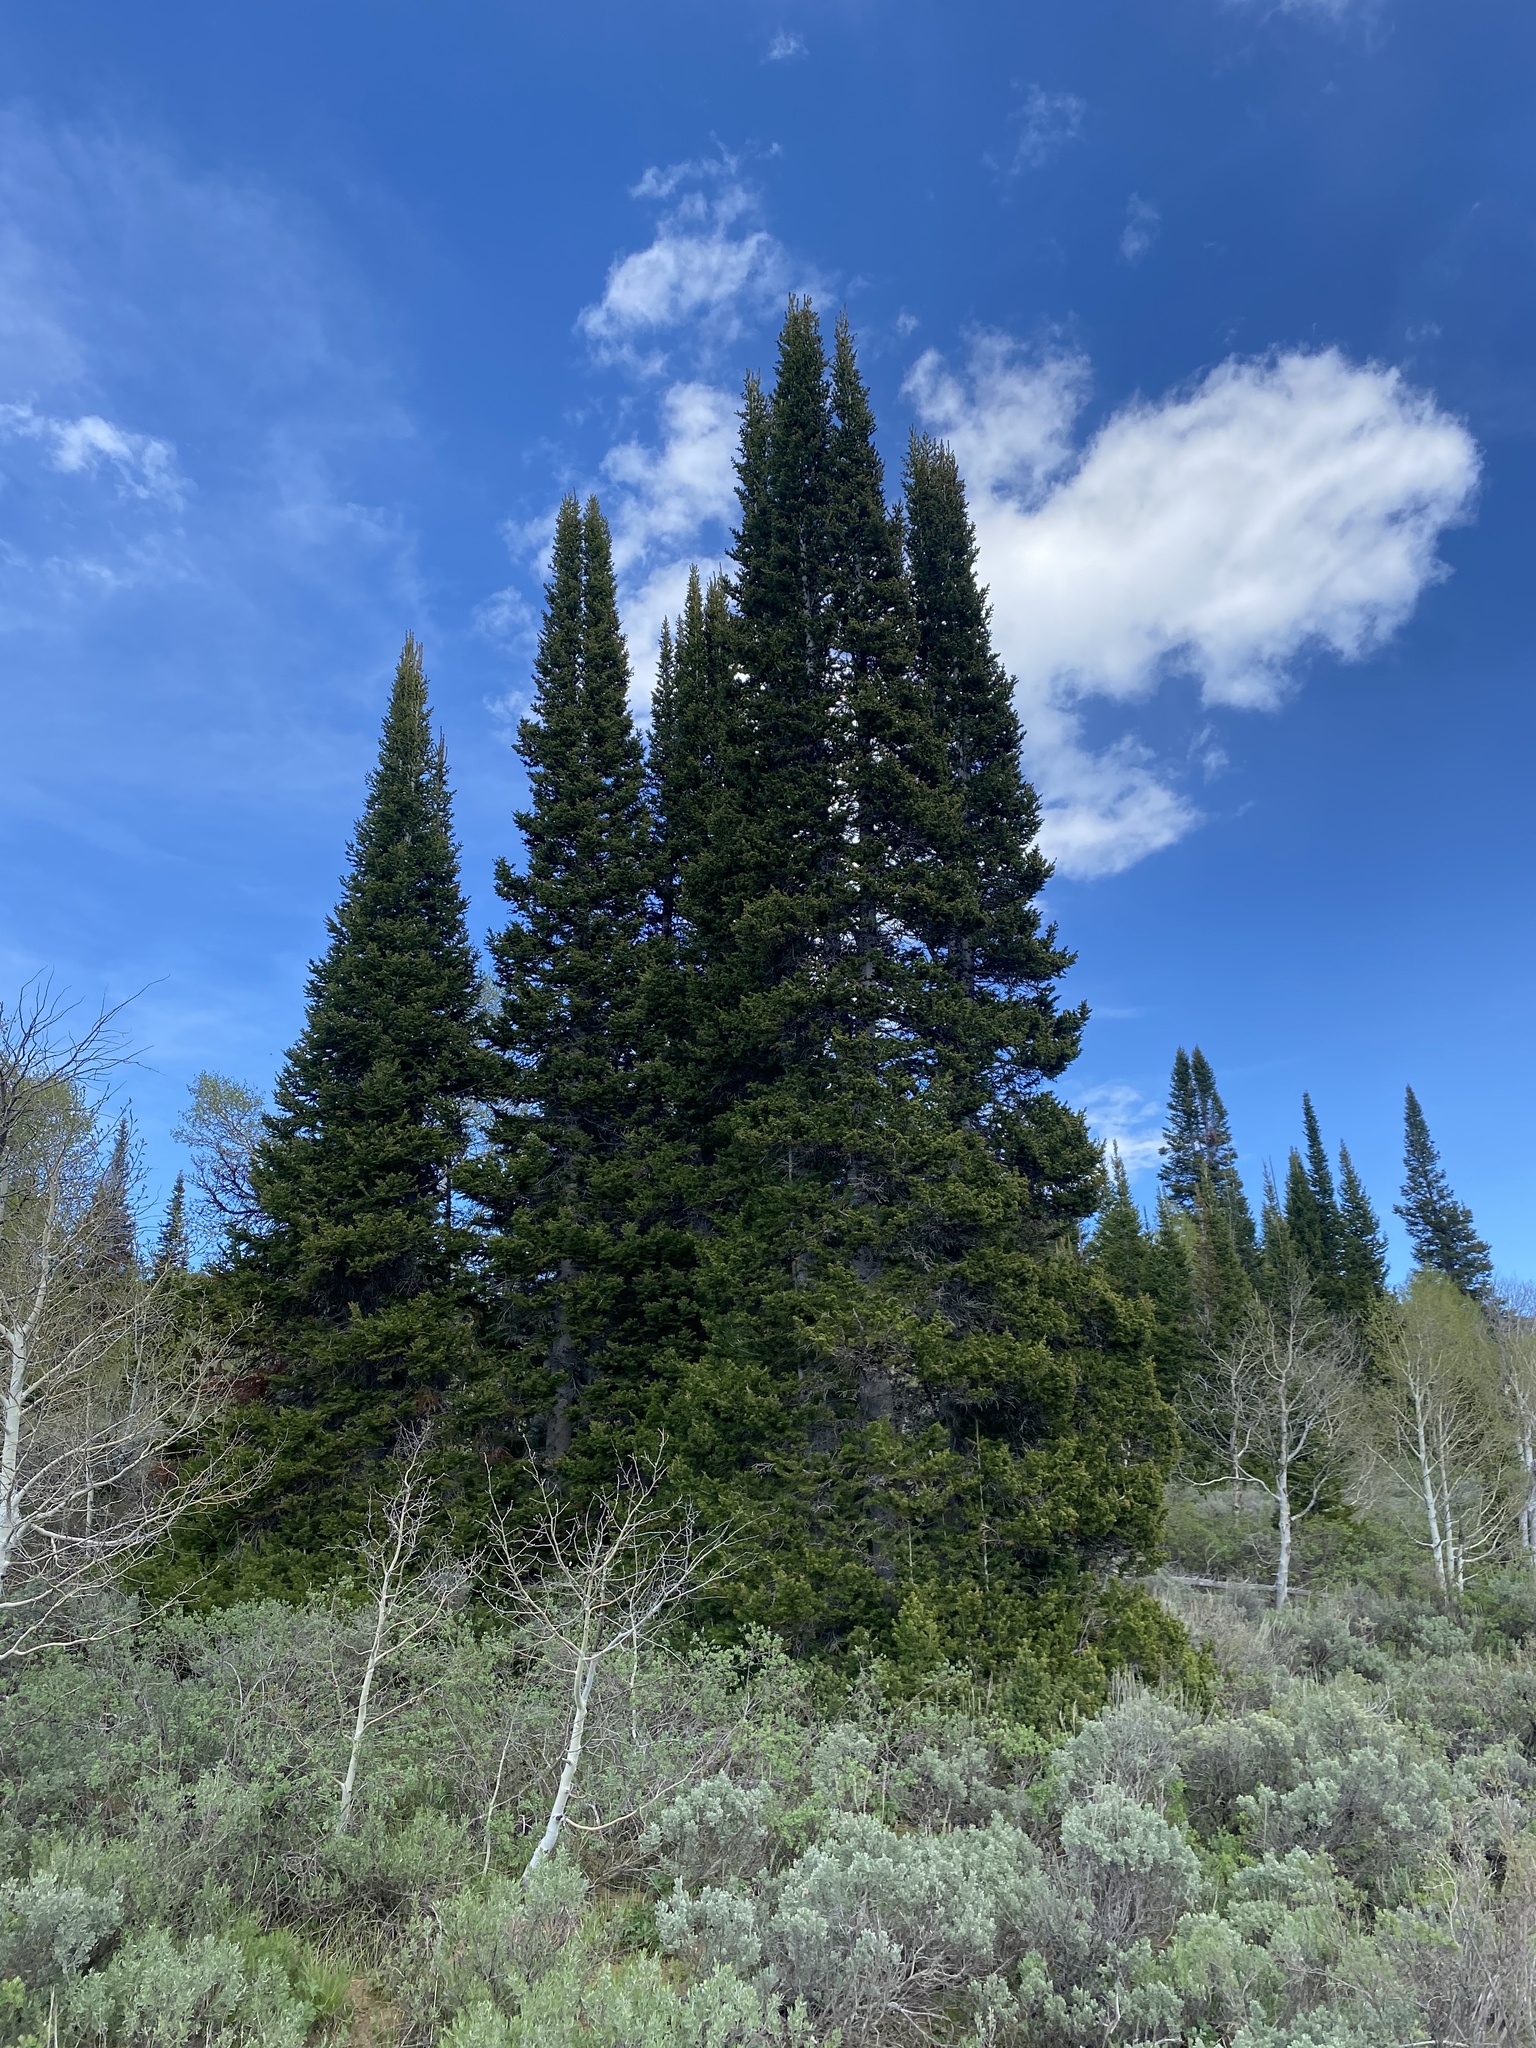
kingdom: Plantae
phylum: Tracheophyta
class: Pinopsida
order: Pinales
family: Pinaceae
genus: Abies
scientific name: Abies lasiocarpa
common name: Subalpine fir
